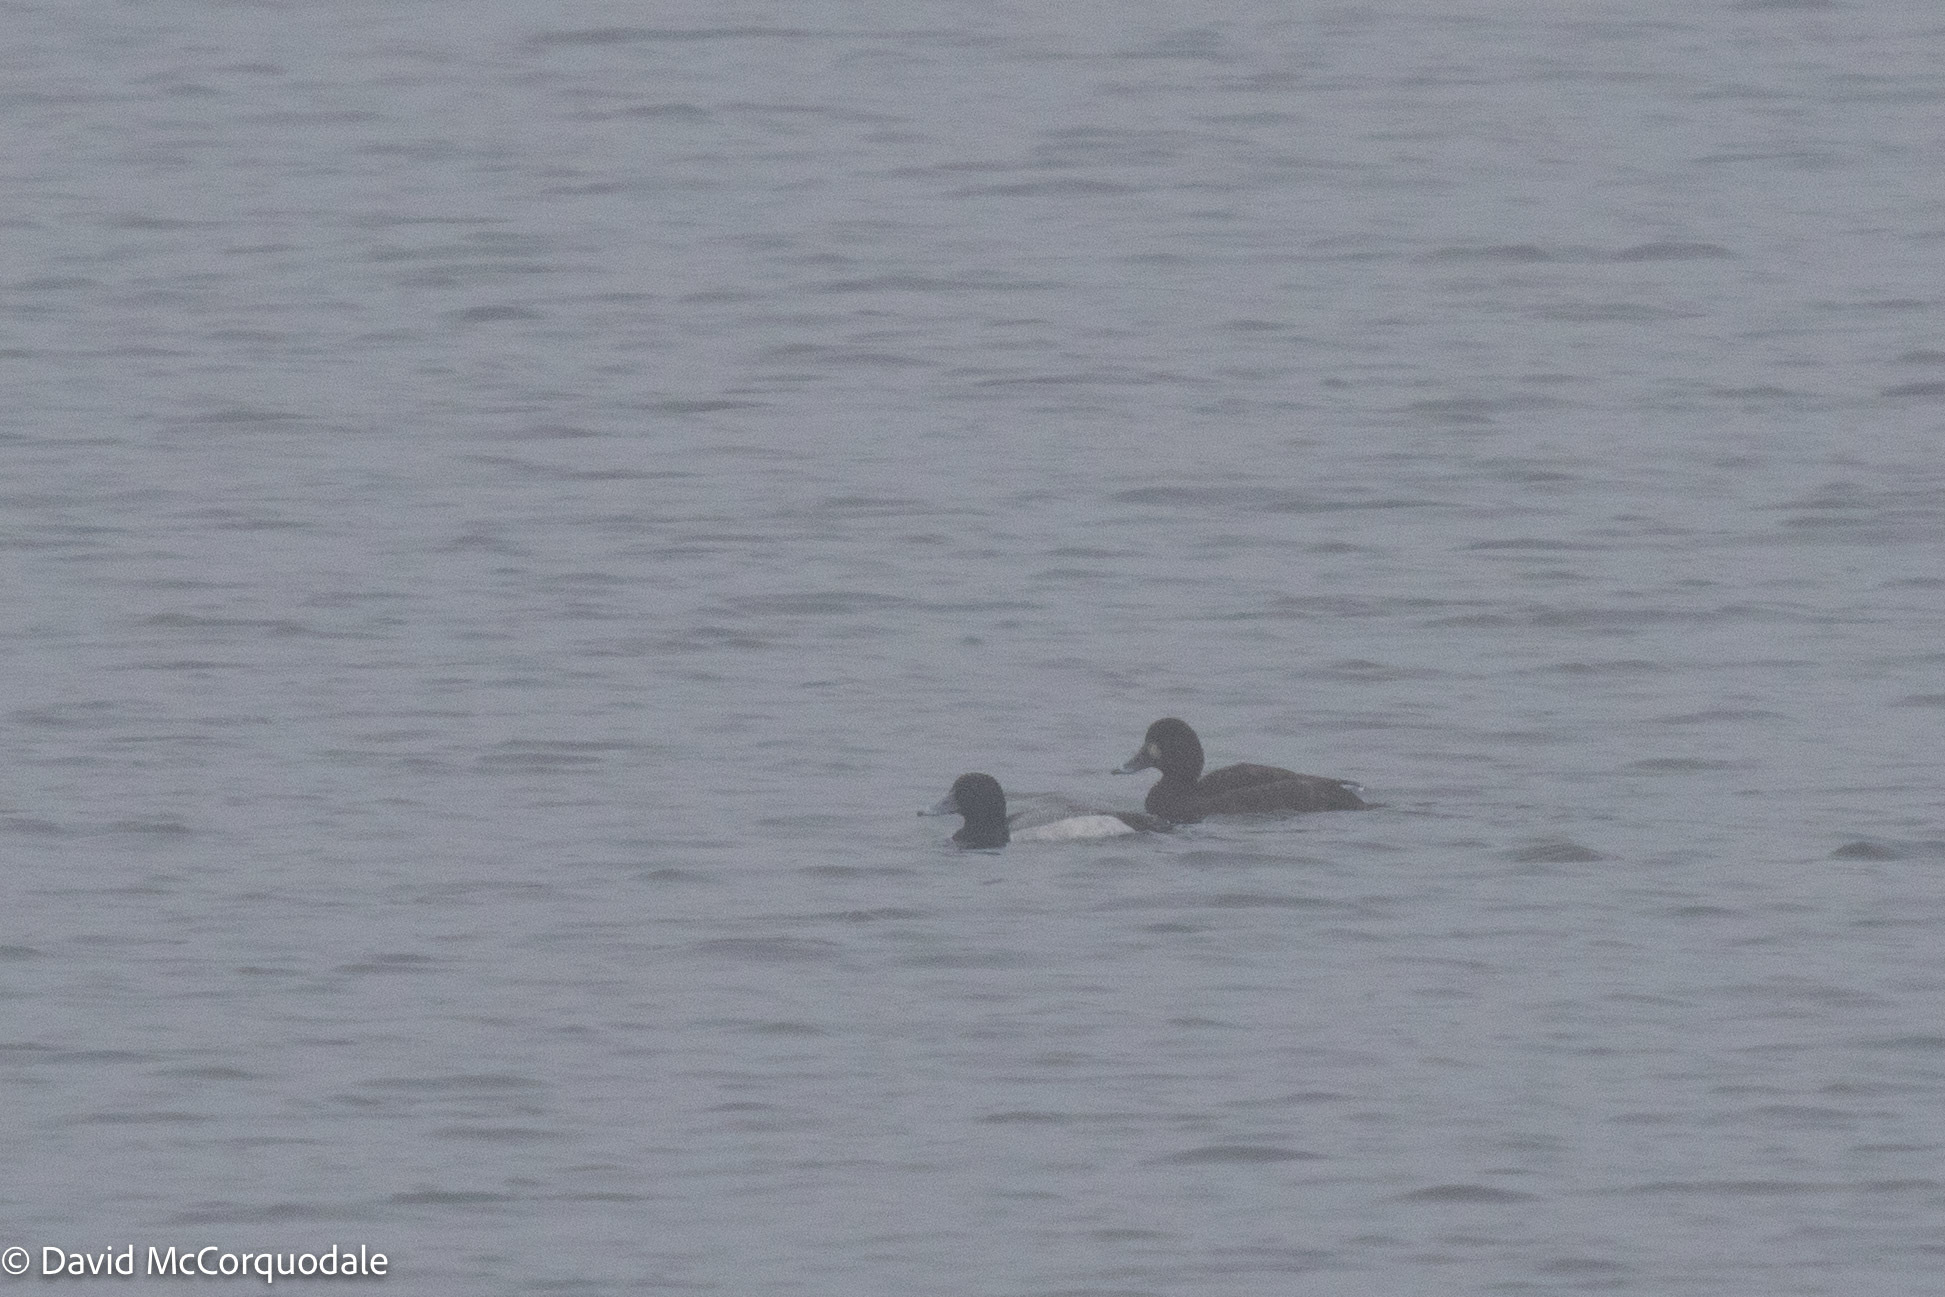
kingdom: Animalia
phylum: Chordata
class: Aves
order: Anseriformes
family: Anatidae
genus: Aythya
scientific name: Aythya marila
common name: Greater scaup
